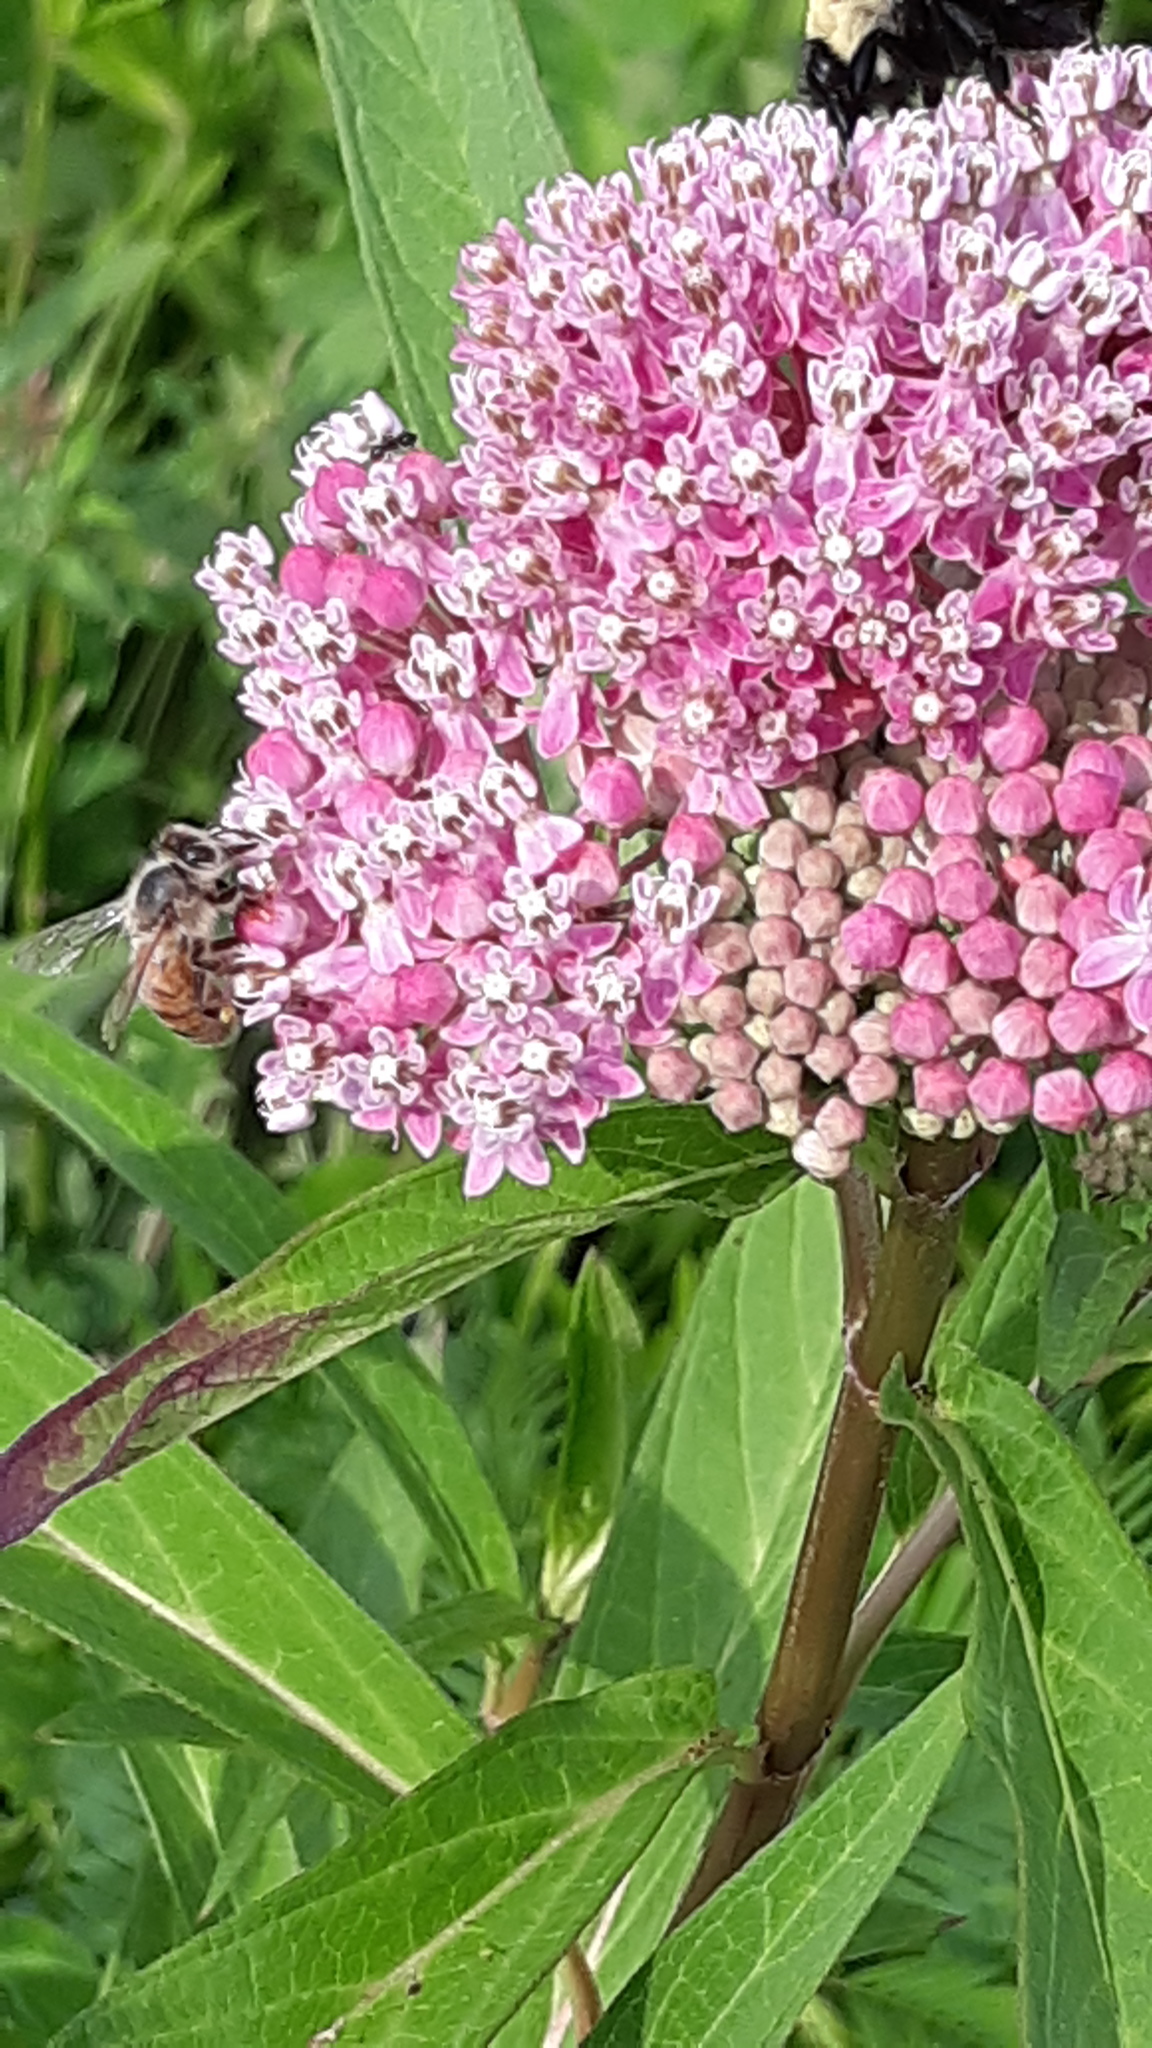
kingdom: Animalia
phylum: Arthropoda
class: Insecta
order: Hymenoptera
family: Apidae
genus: Apis
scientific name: Apis mellifera
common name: Honey bee
